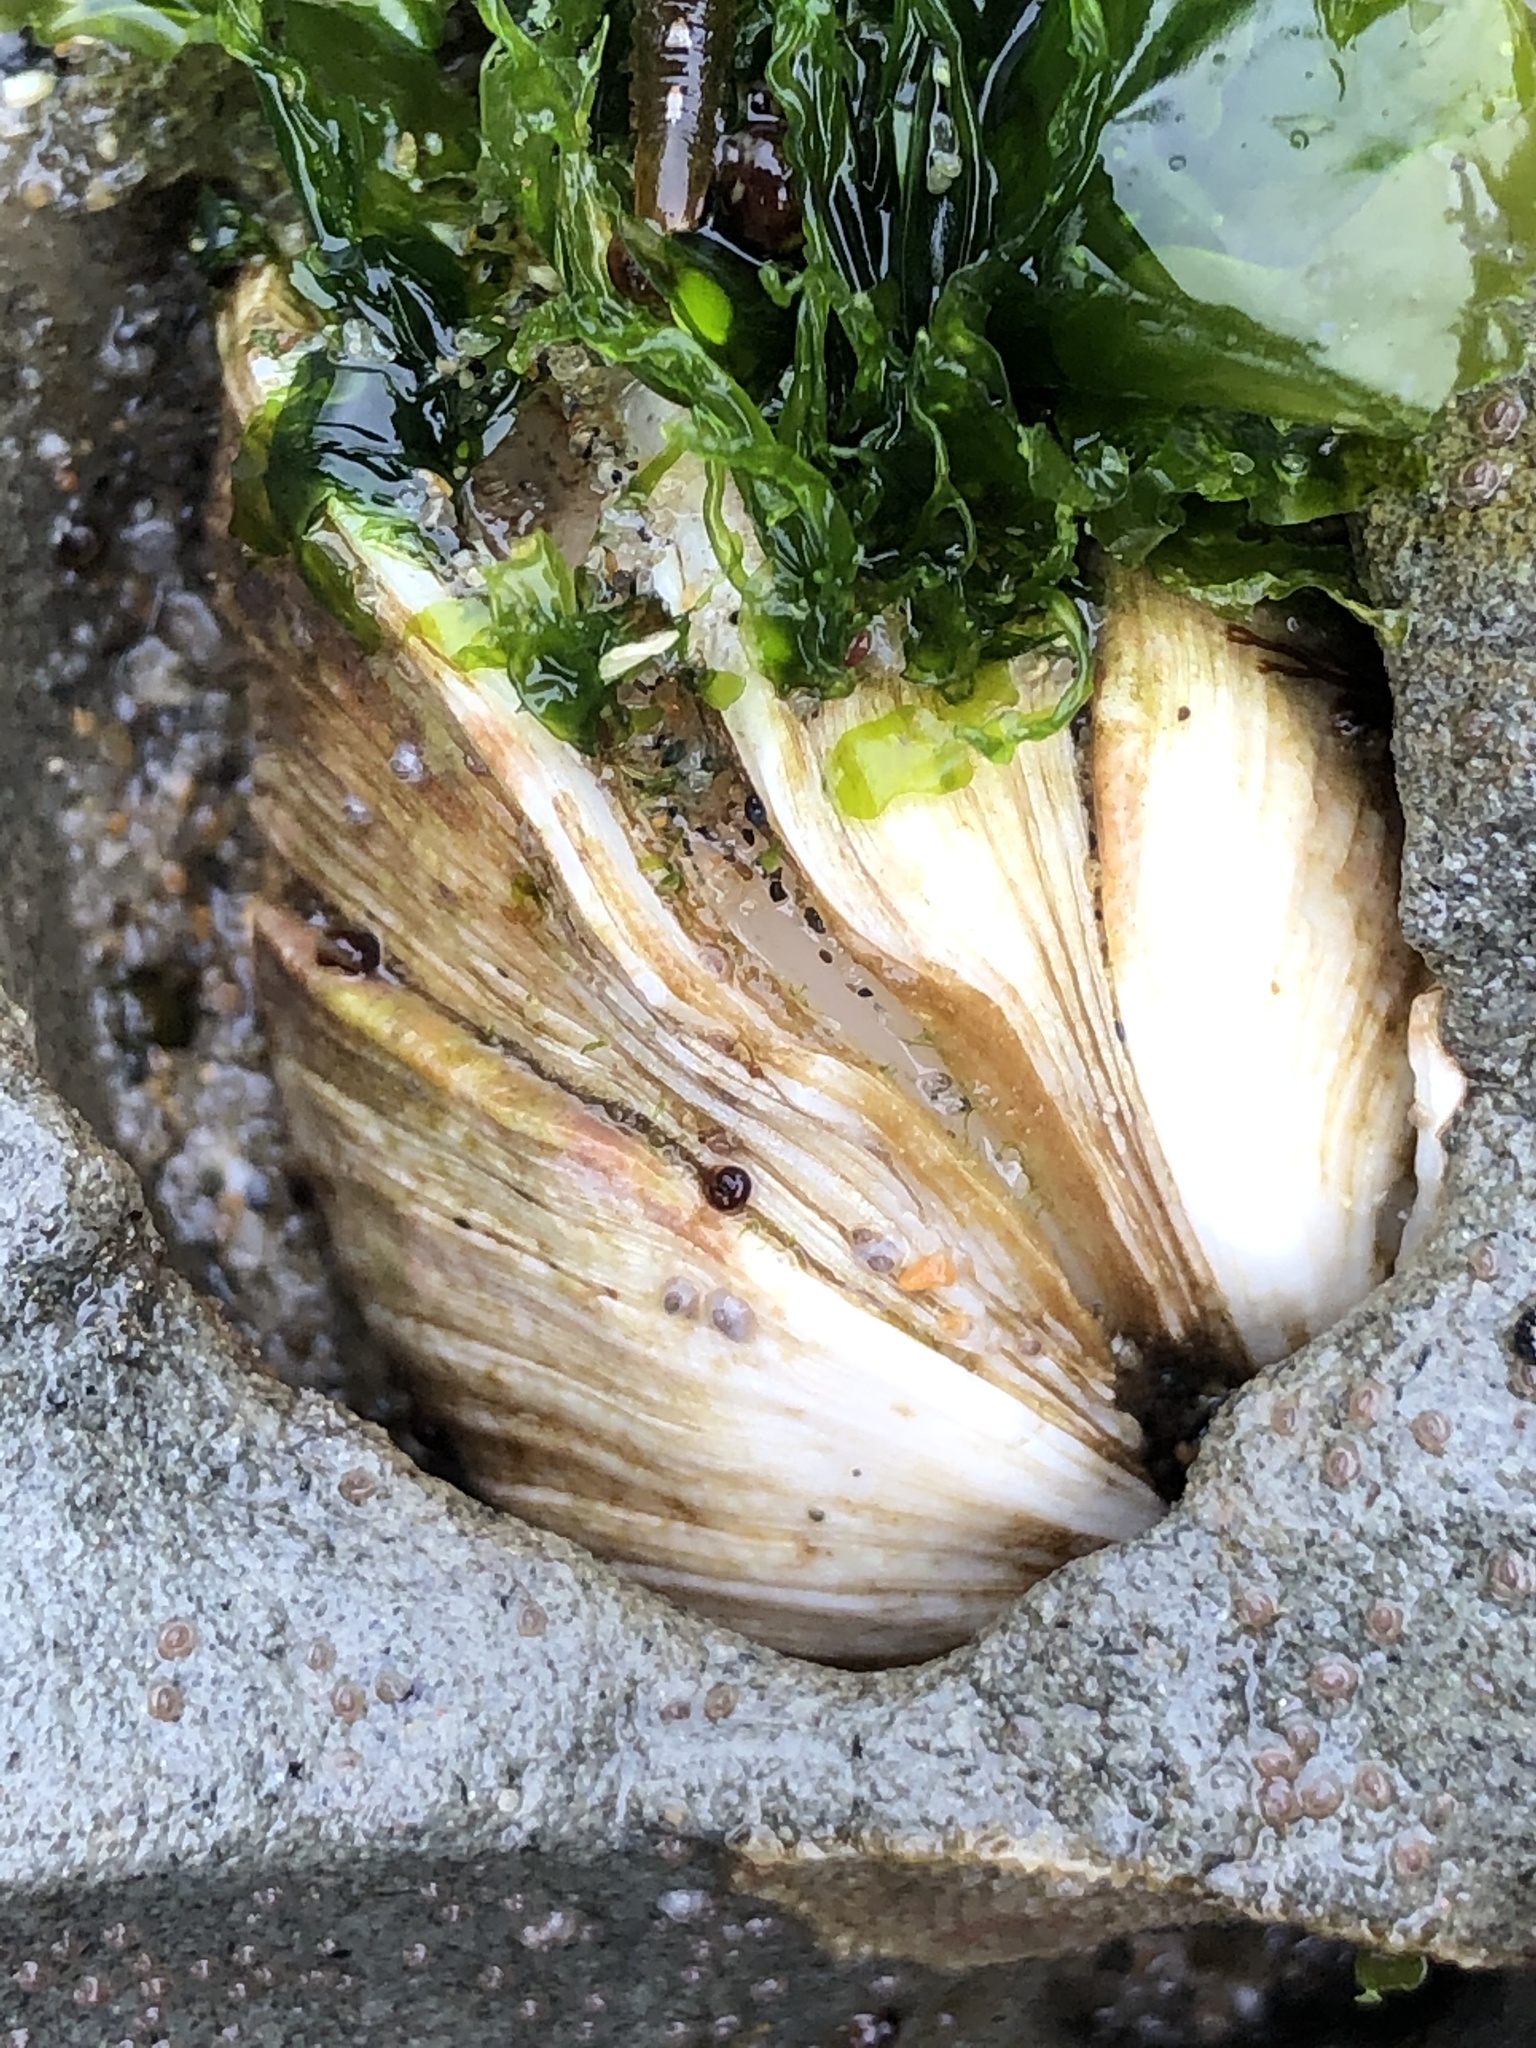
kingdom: Animalia
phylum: Mollusca
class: Bivalvia
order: Venerida
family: Veneridae
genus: Petricola
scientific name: Petricola carditoides
